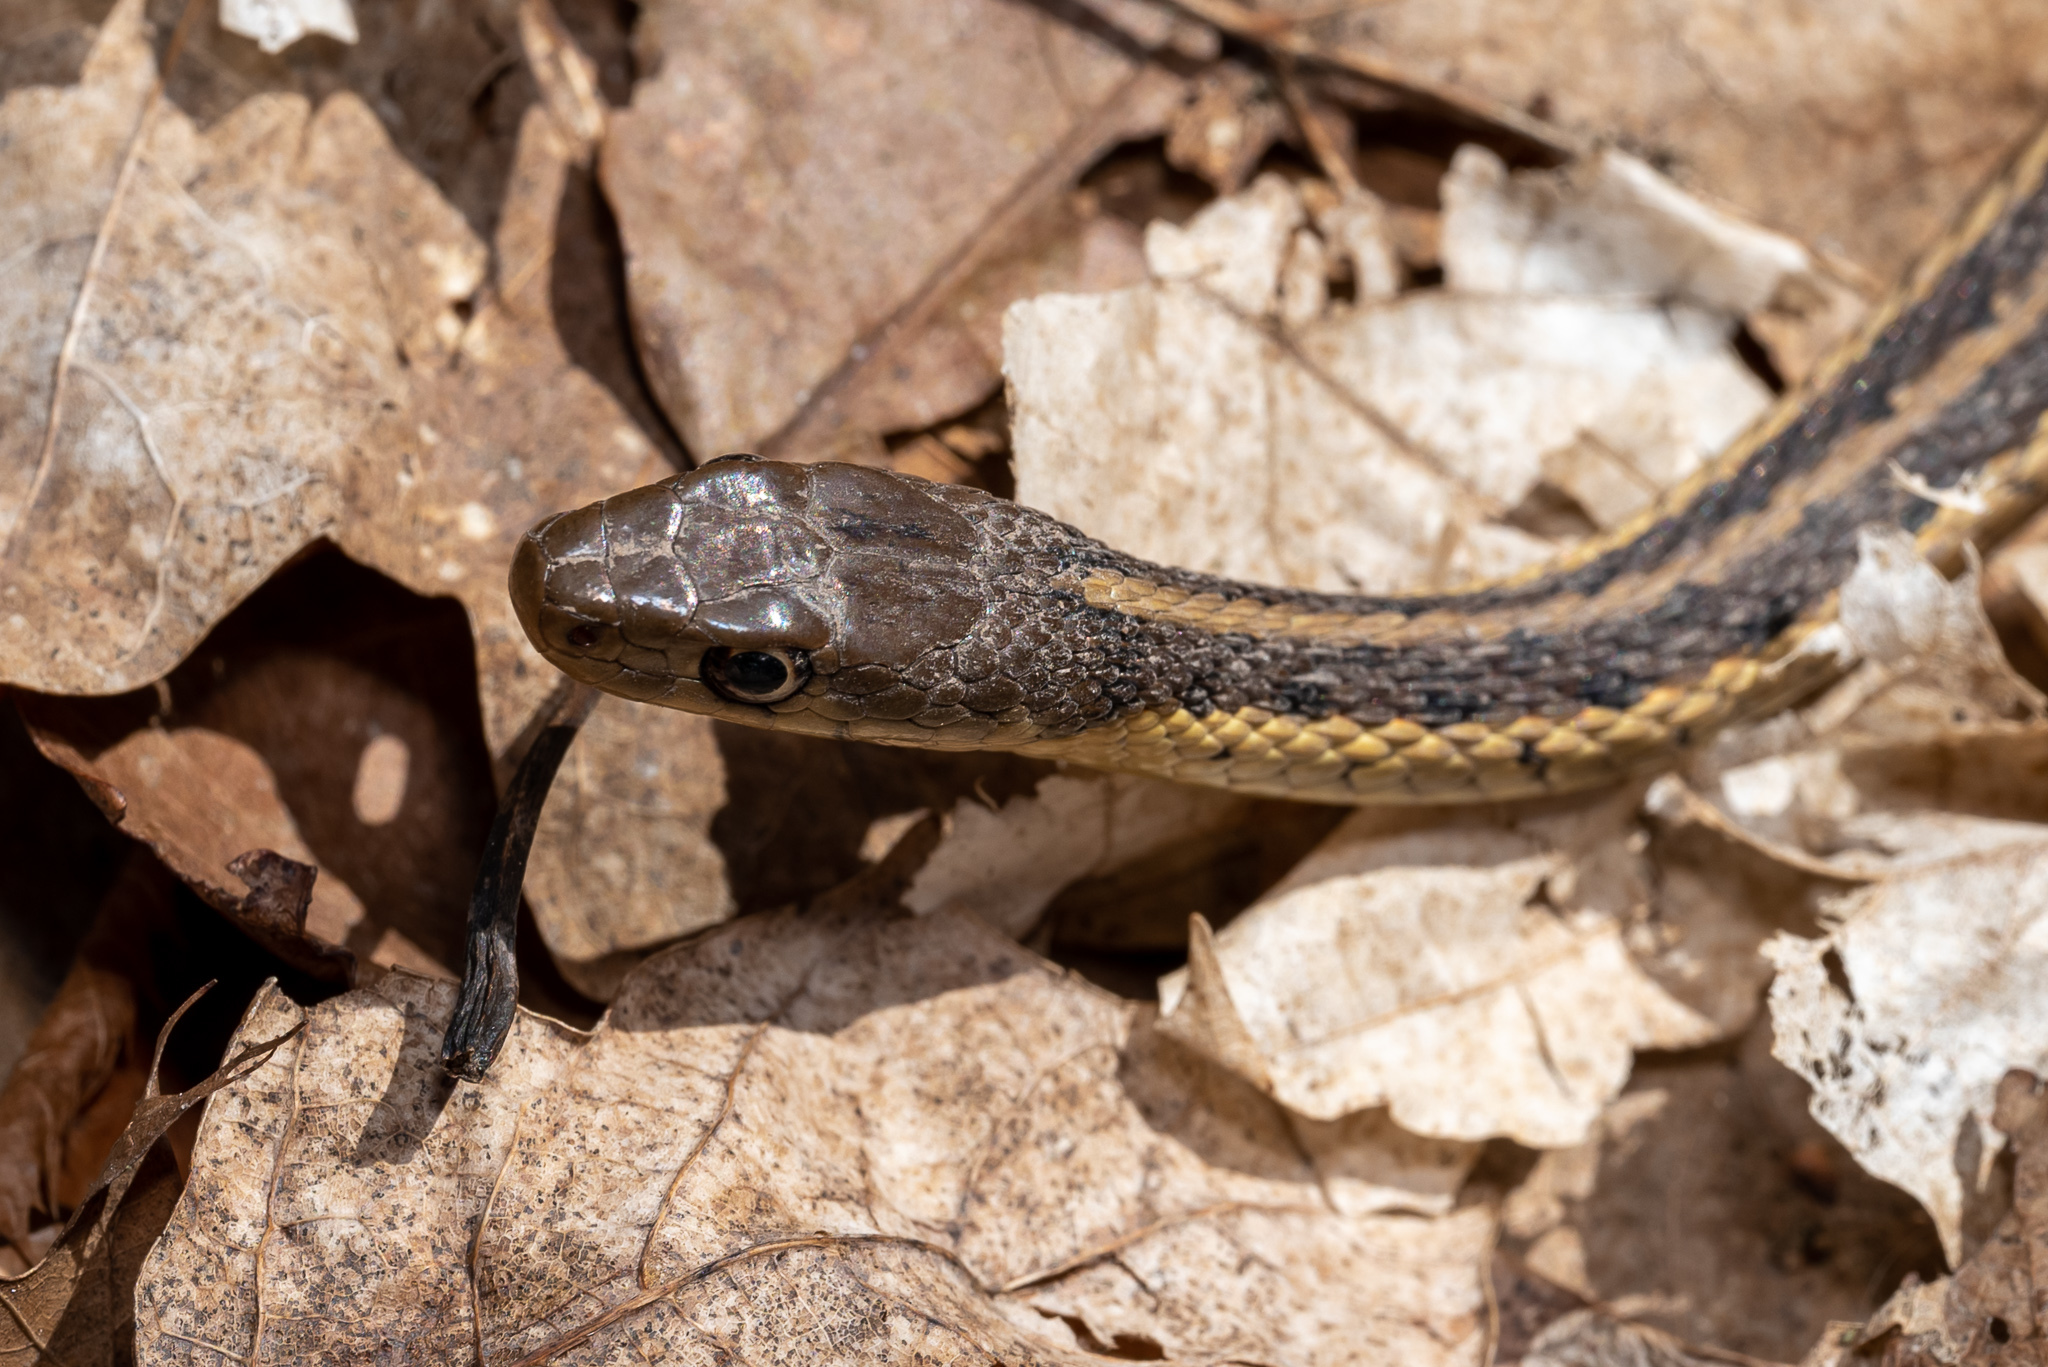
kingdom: Animalia
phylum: Chordata
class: Squamata
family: Colubridae
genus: Thamnophis
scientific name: Thamnophis sirtalis
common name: Common garter snake
